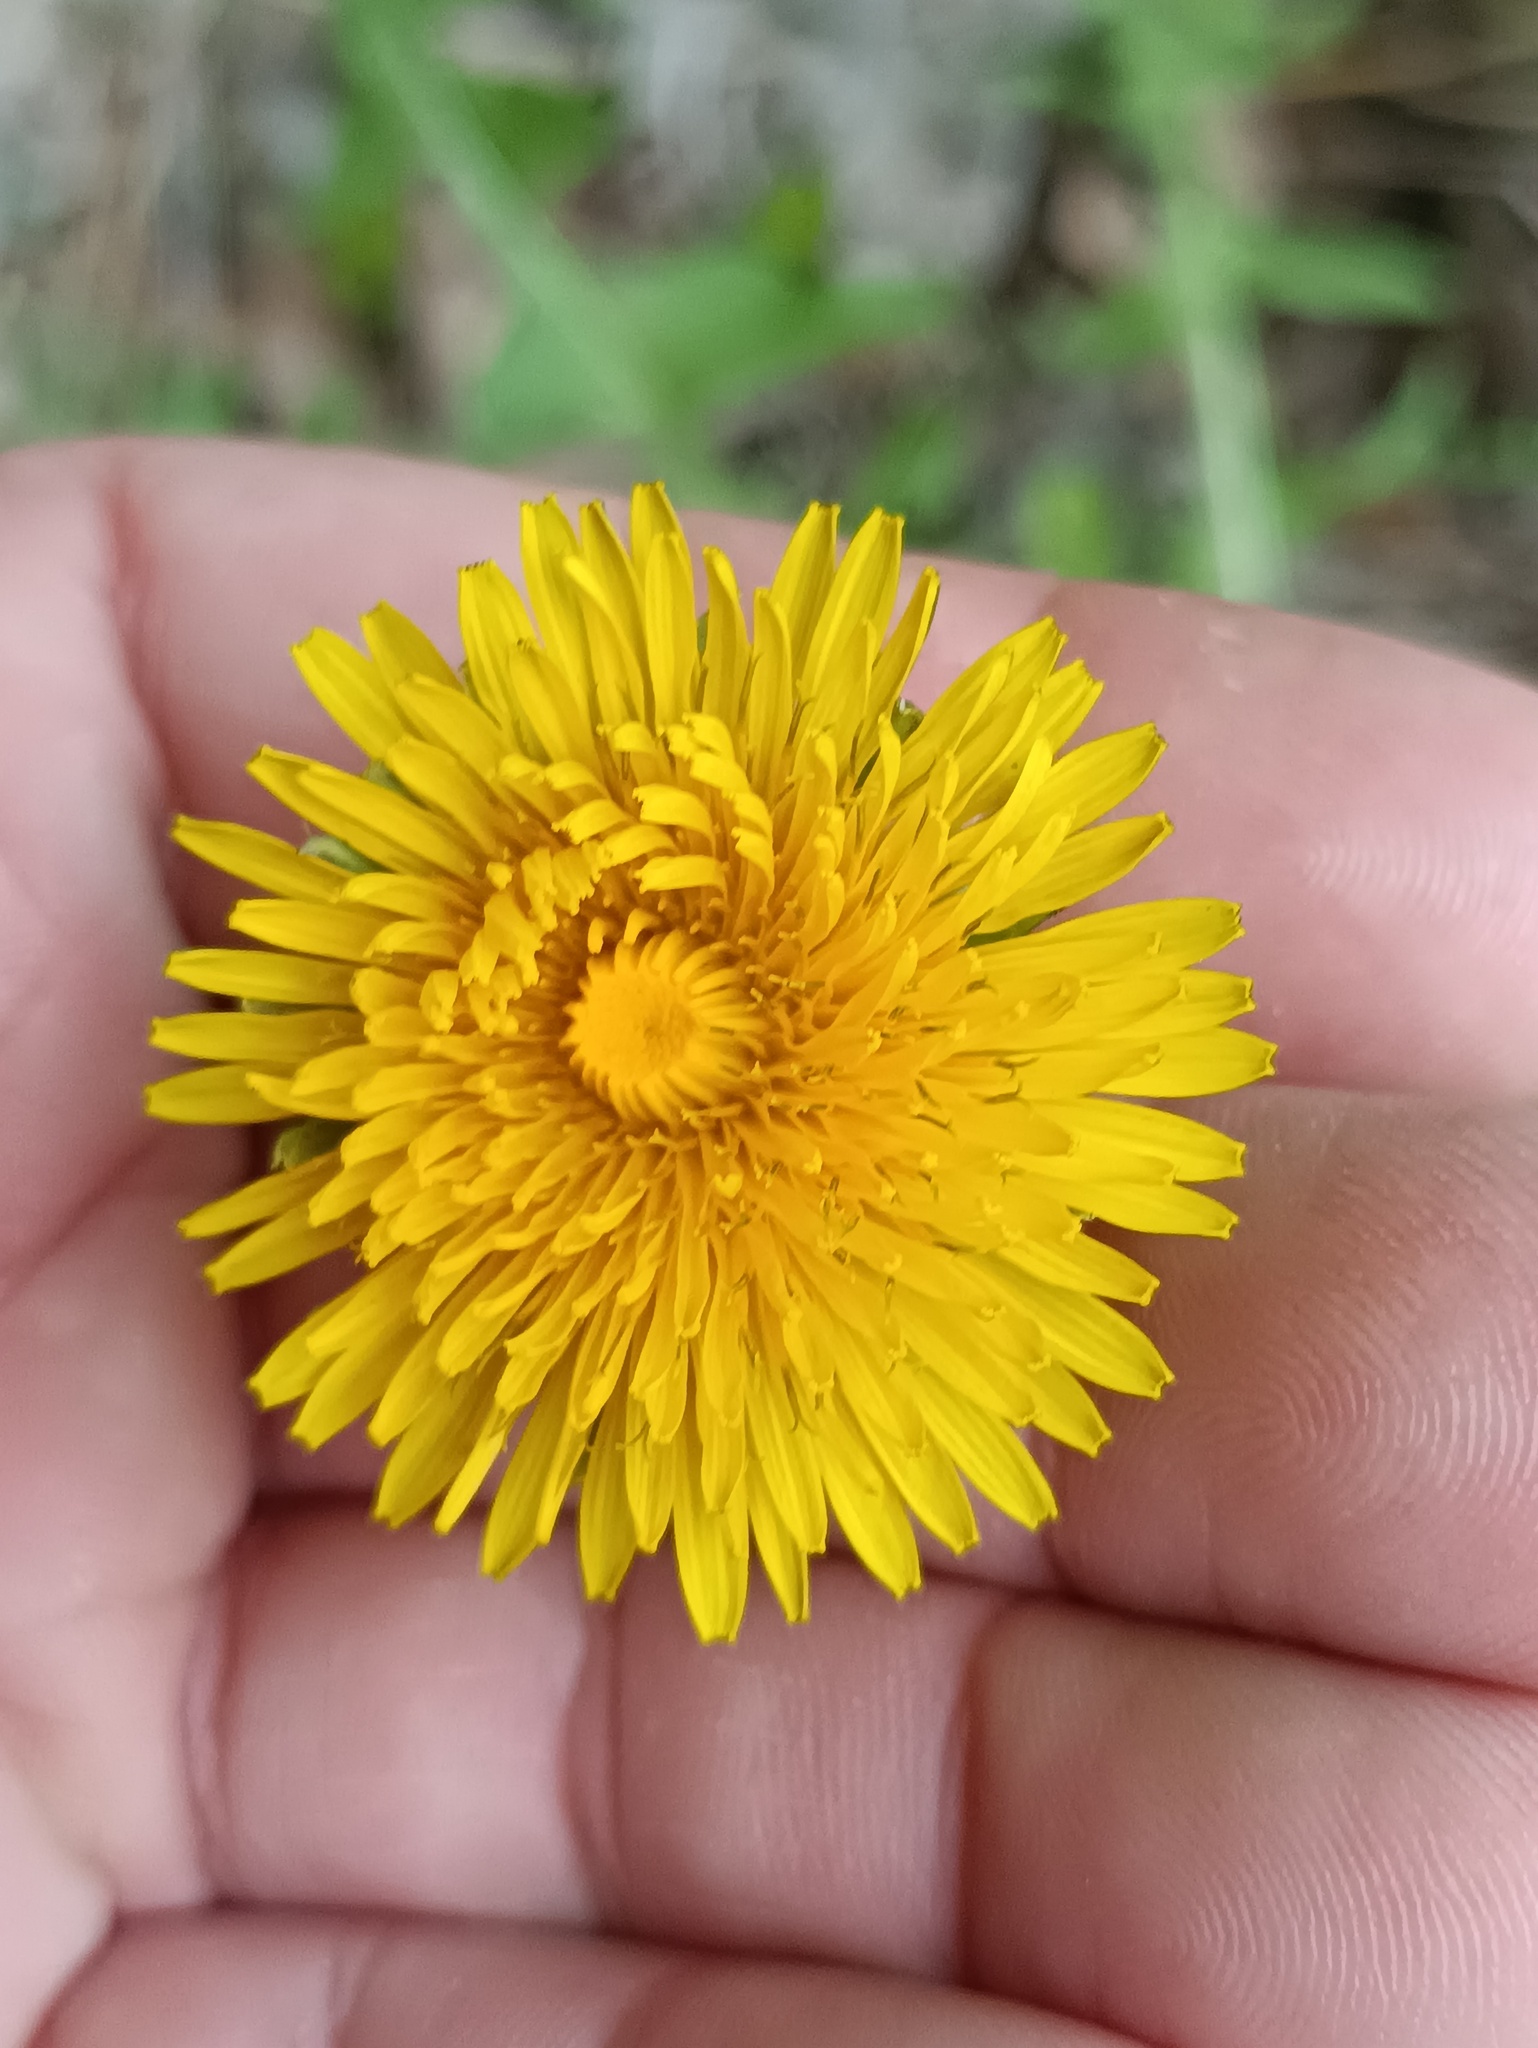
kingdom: Plantae
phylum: Tracheophyta
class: Magnoliopsida
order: Asterales
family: Asteraceae
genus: Taraxacum
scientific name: Taraxacum officinale
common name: Common dandelion
